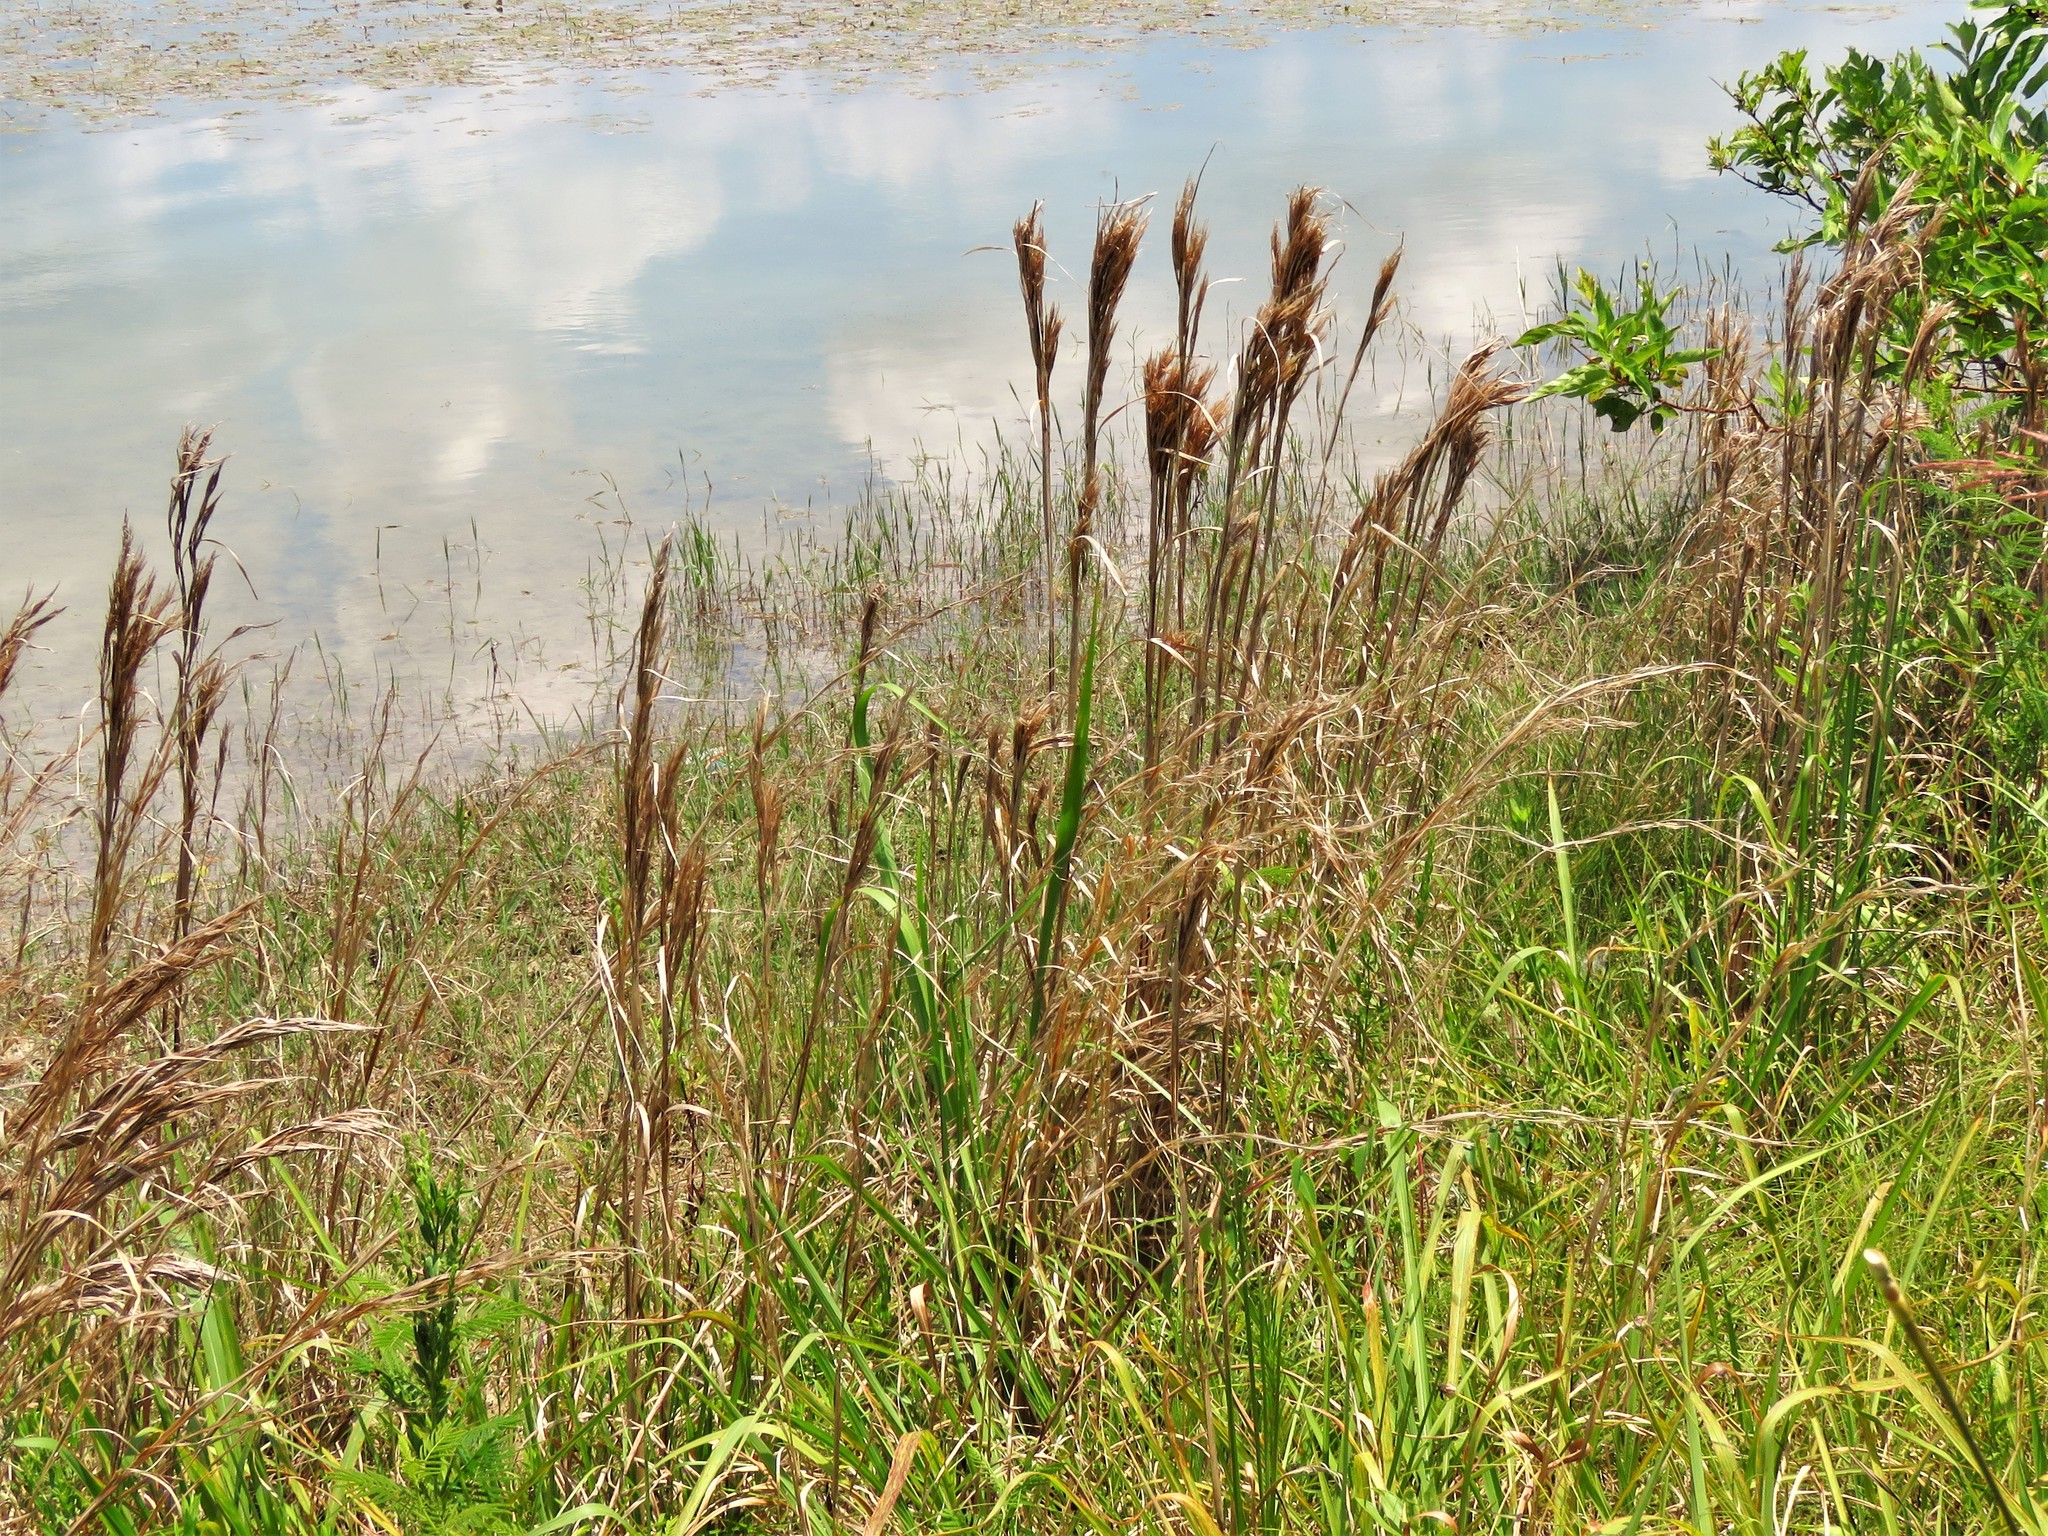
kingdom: Plantae
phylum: Tracheophyta
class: Liliopsida
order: Poales
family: Poaceae
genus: Andropogon
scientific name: Andropogon tenuispatheus
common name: Bushy bluestem
